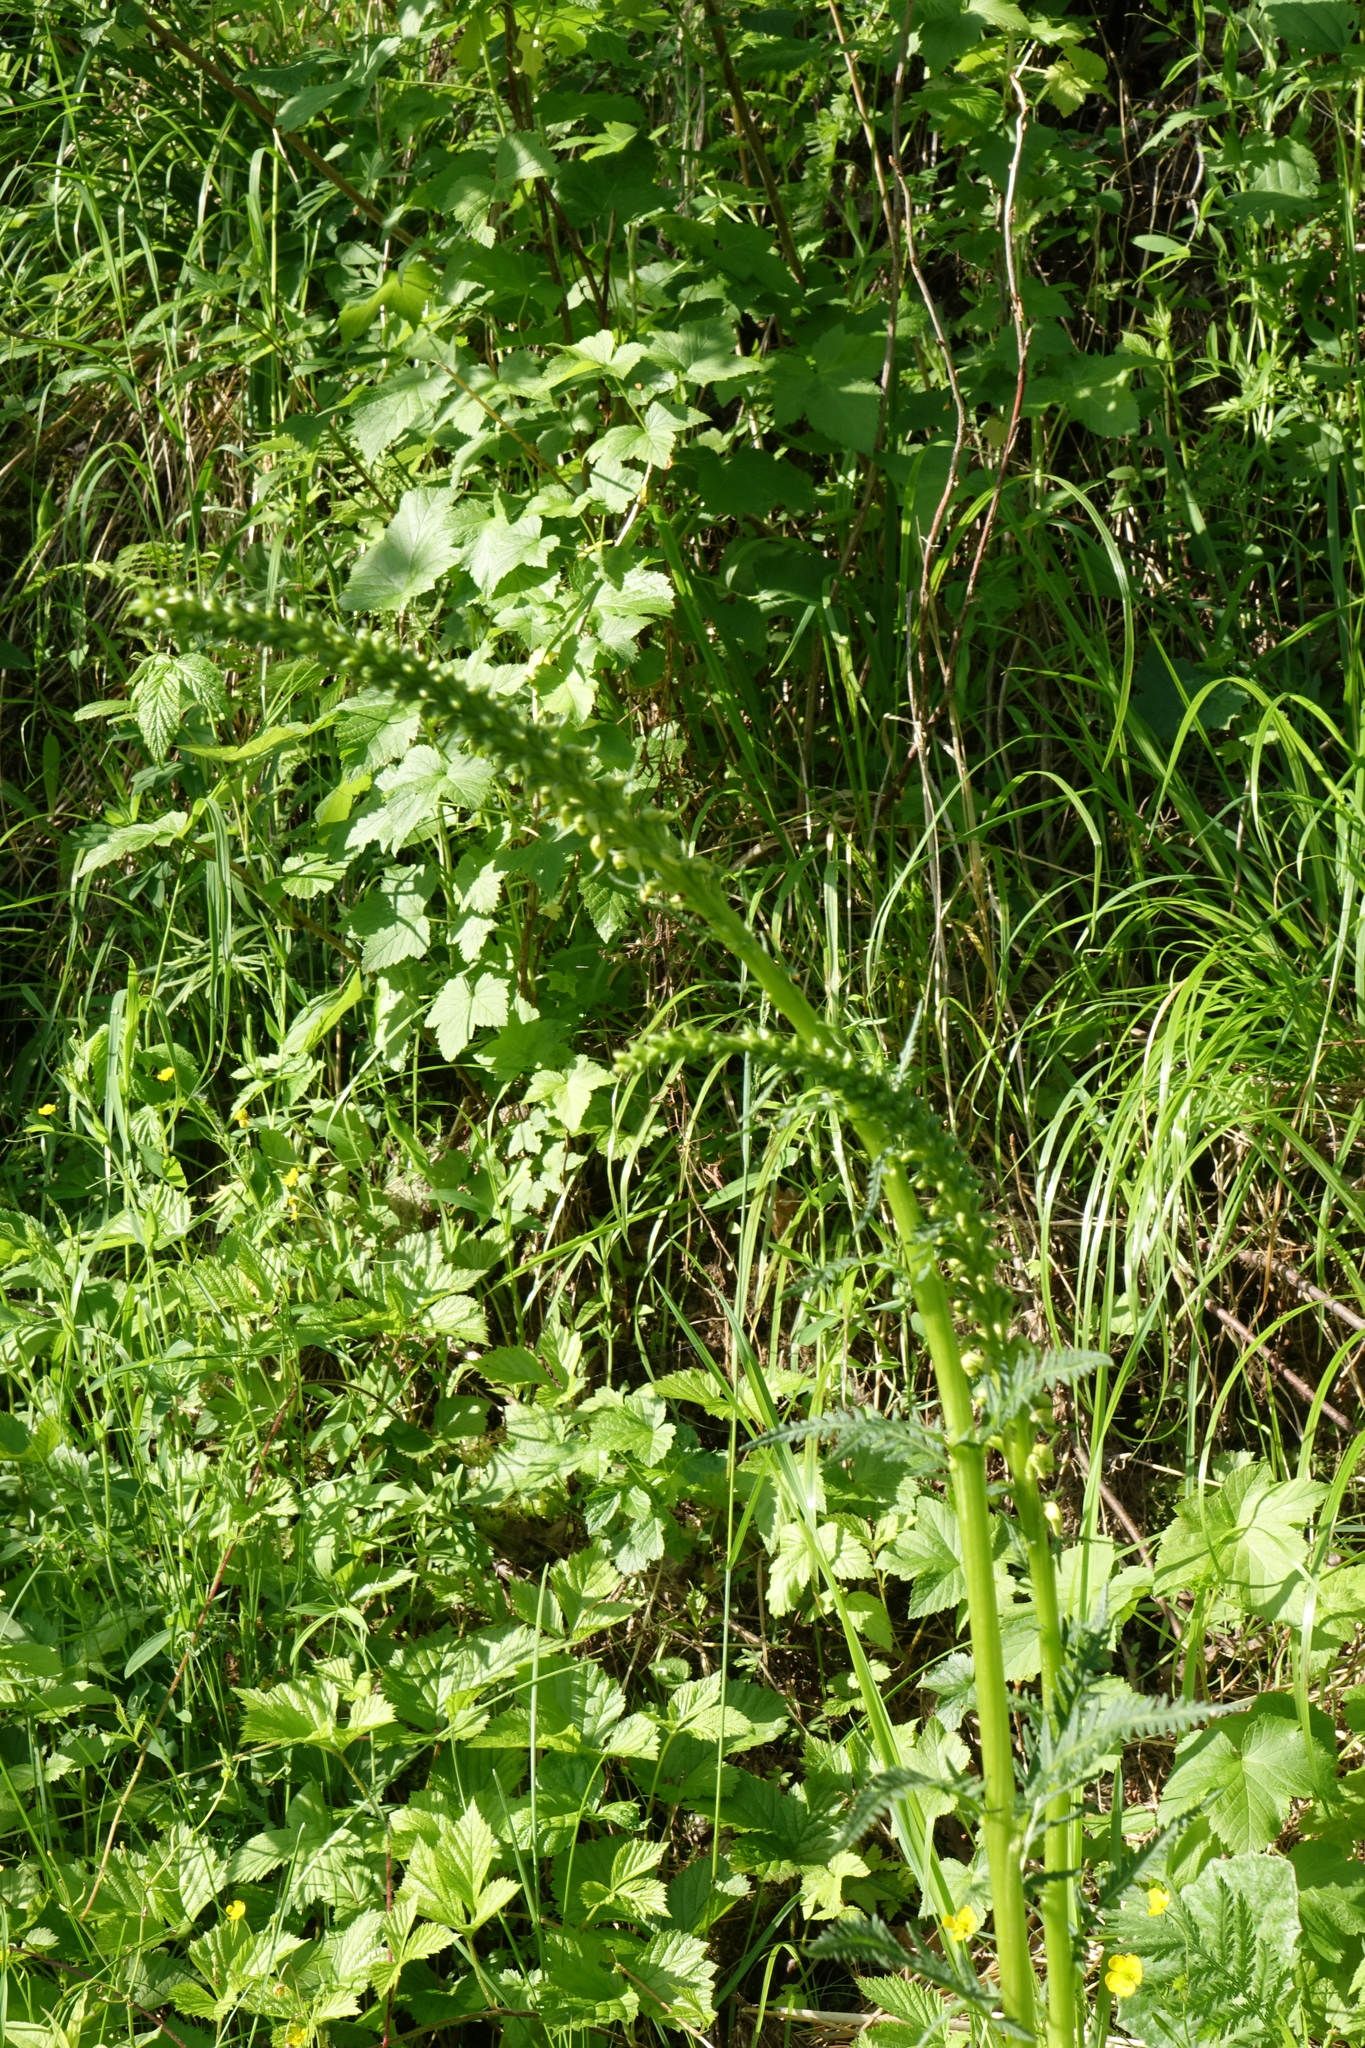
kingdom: Plantae
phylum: Tracheophyta
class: Magnoliopsida
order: Lamiales
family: Orobanchaceae
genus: Pedicularis
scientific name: Pedicularis incarnata
